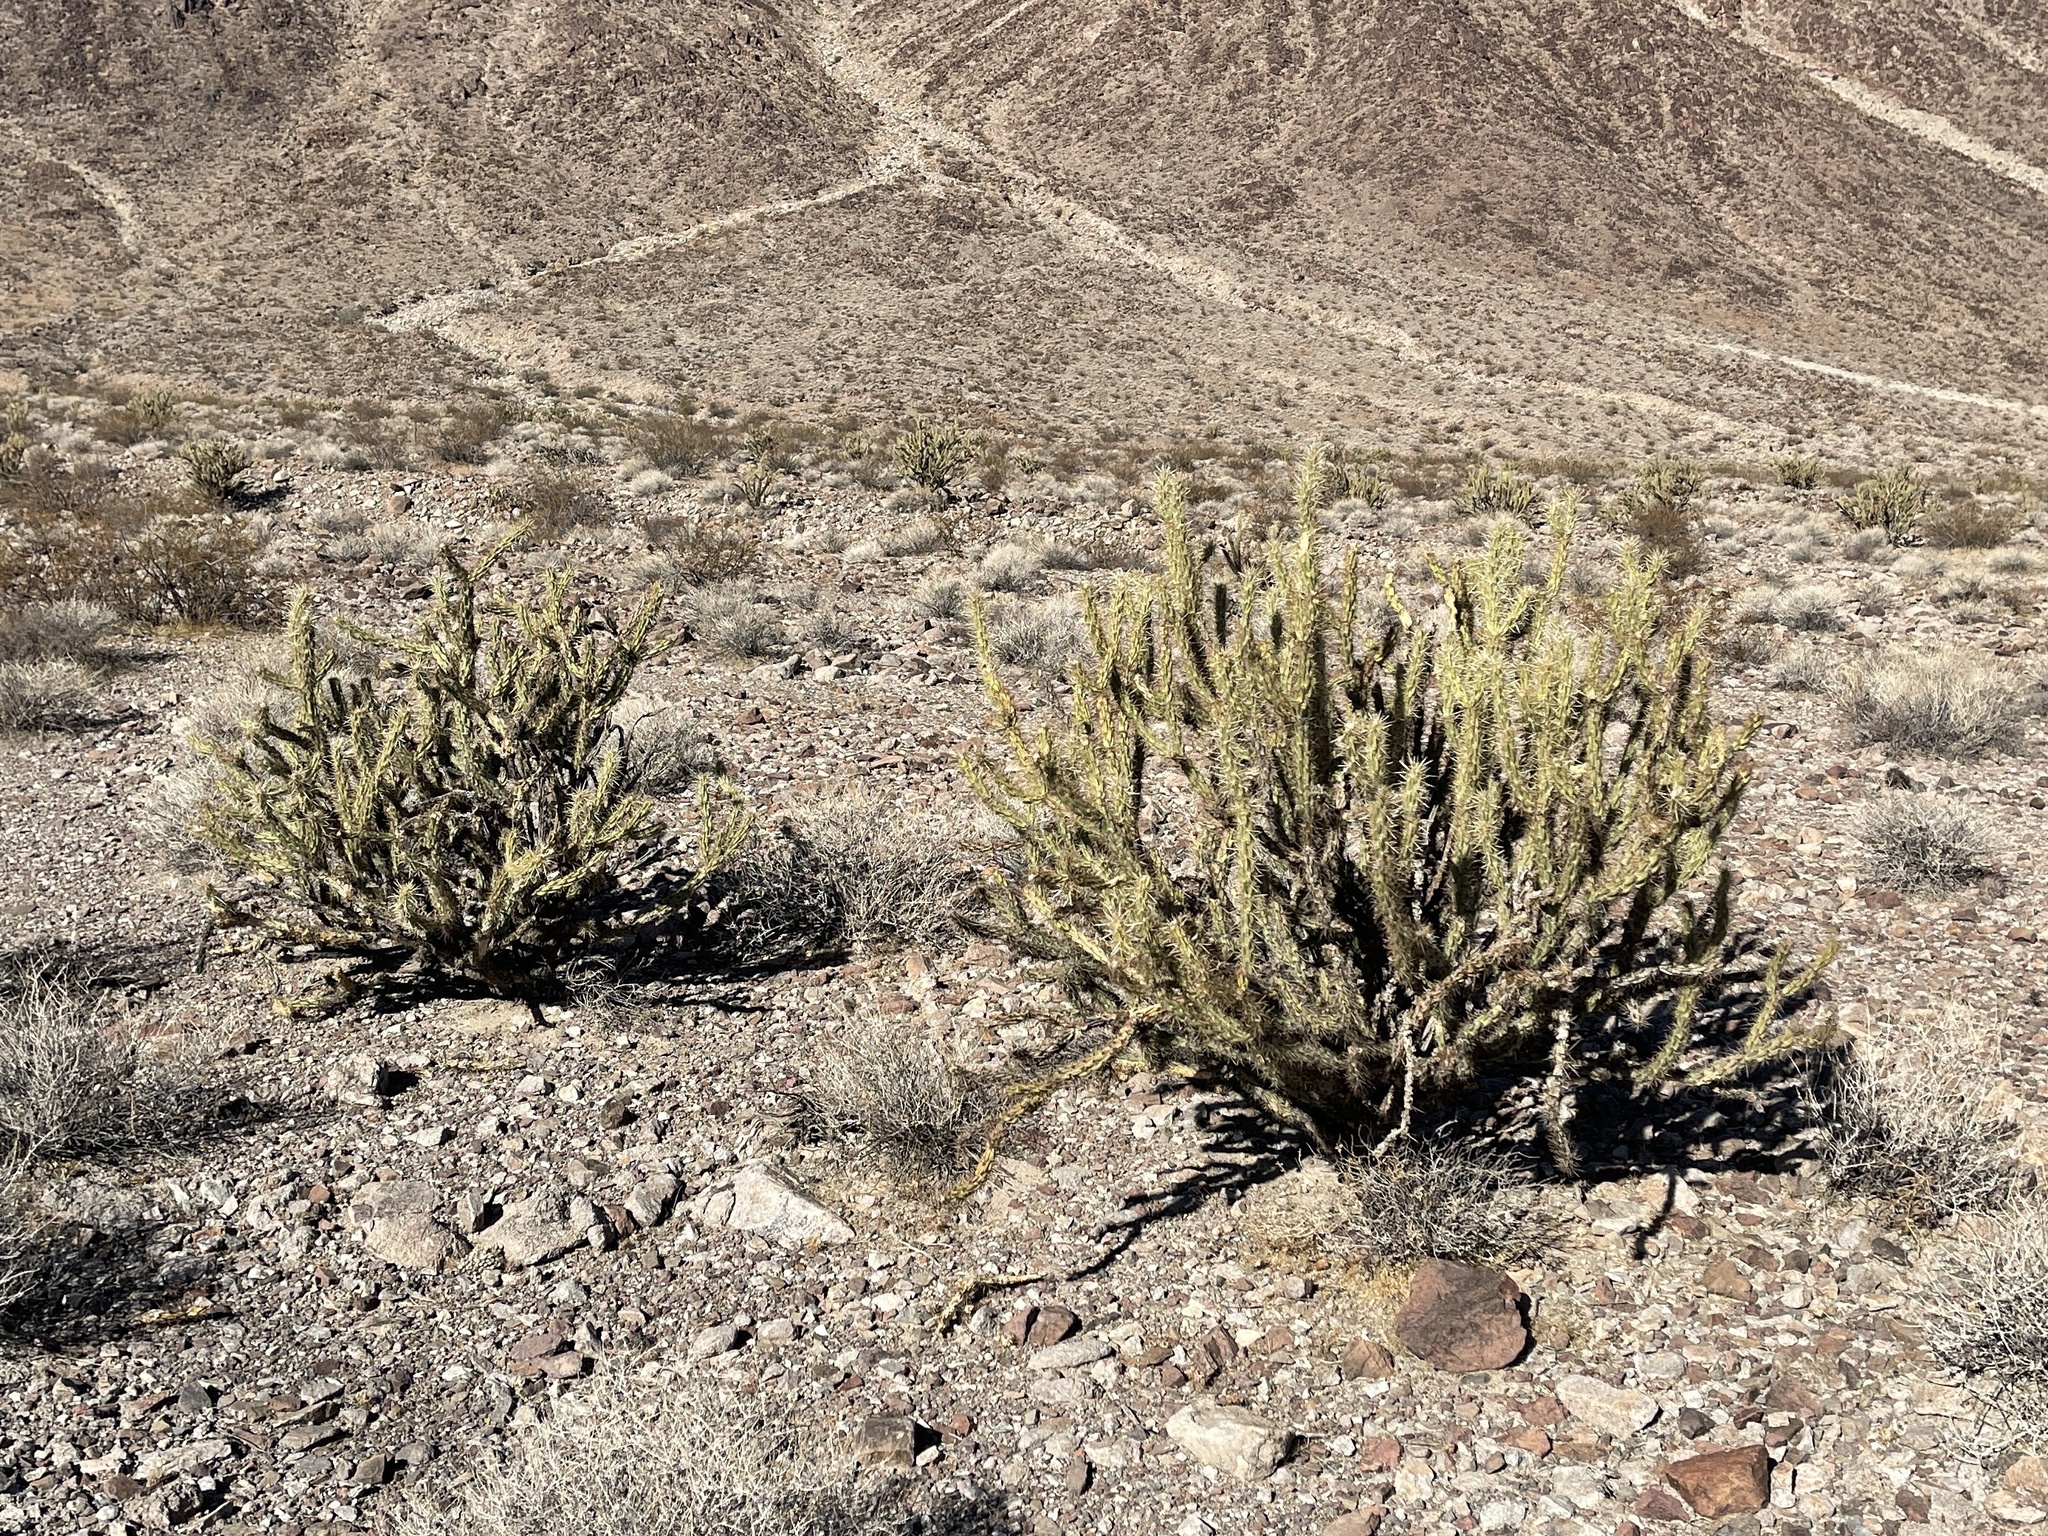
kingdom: Plantae
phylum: Tracheophyta
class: Magnoliopsida
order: Caryophyllales
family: Cactaceae
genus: Cylindropuntia
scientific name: Cylindropuntia acanthocarpa
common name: Buckhorn cholla
